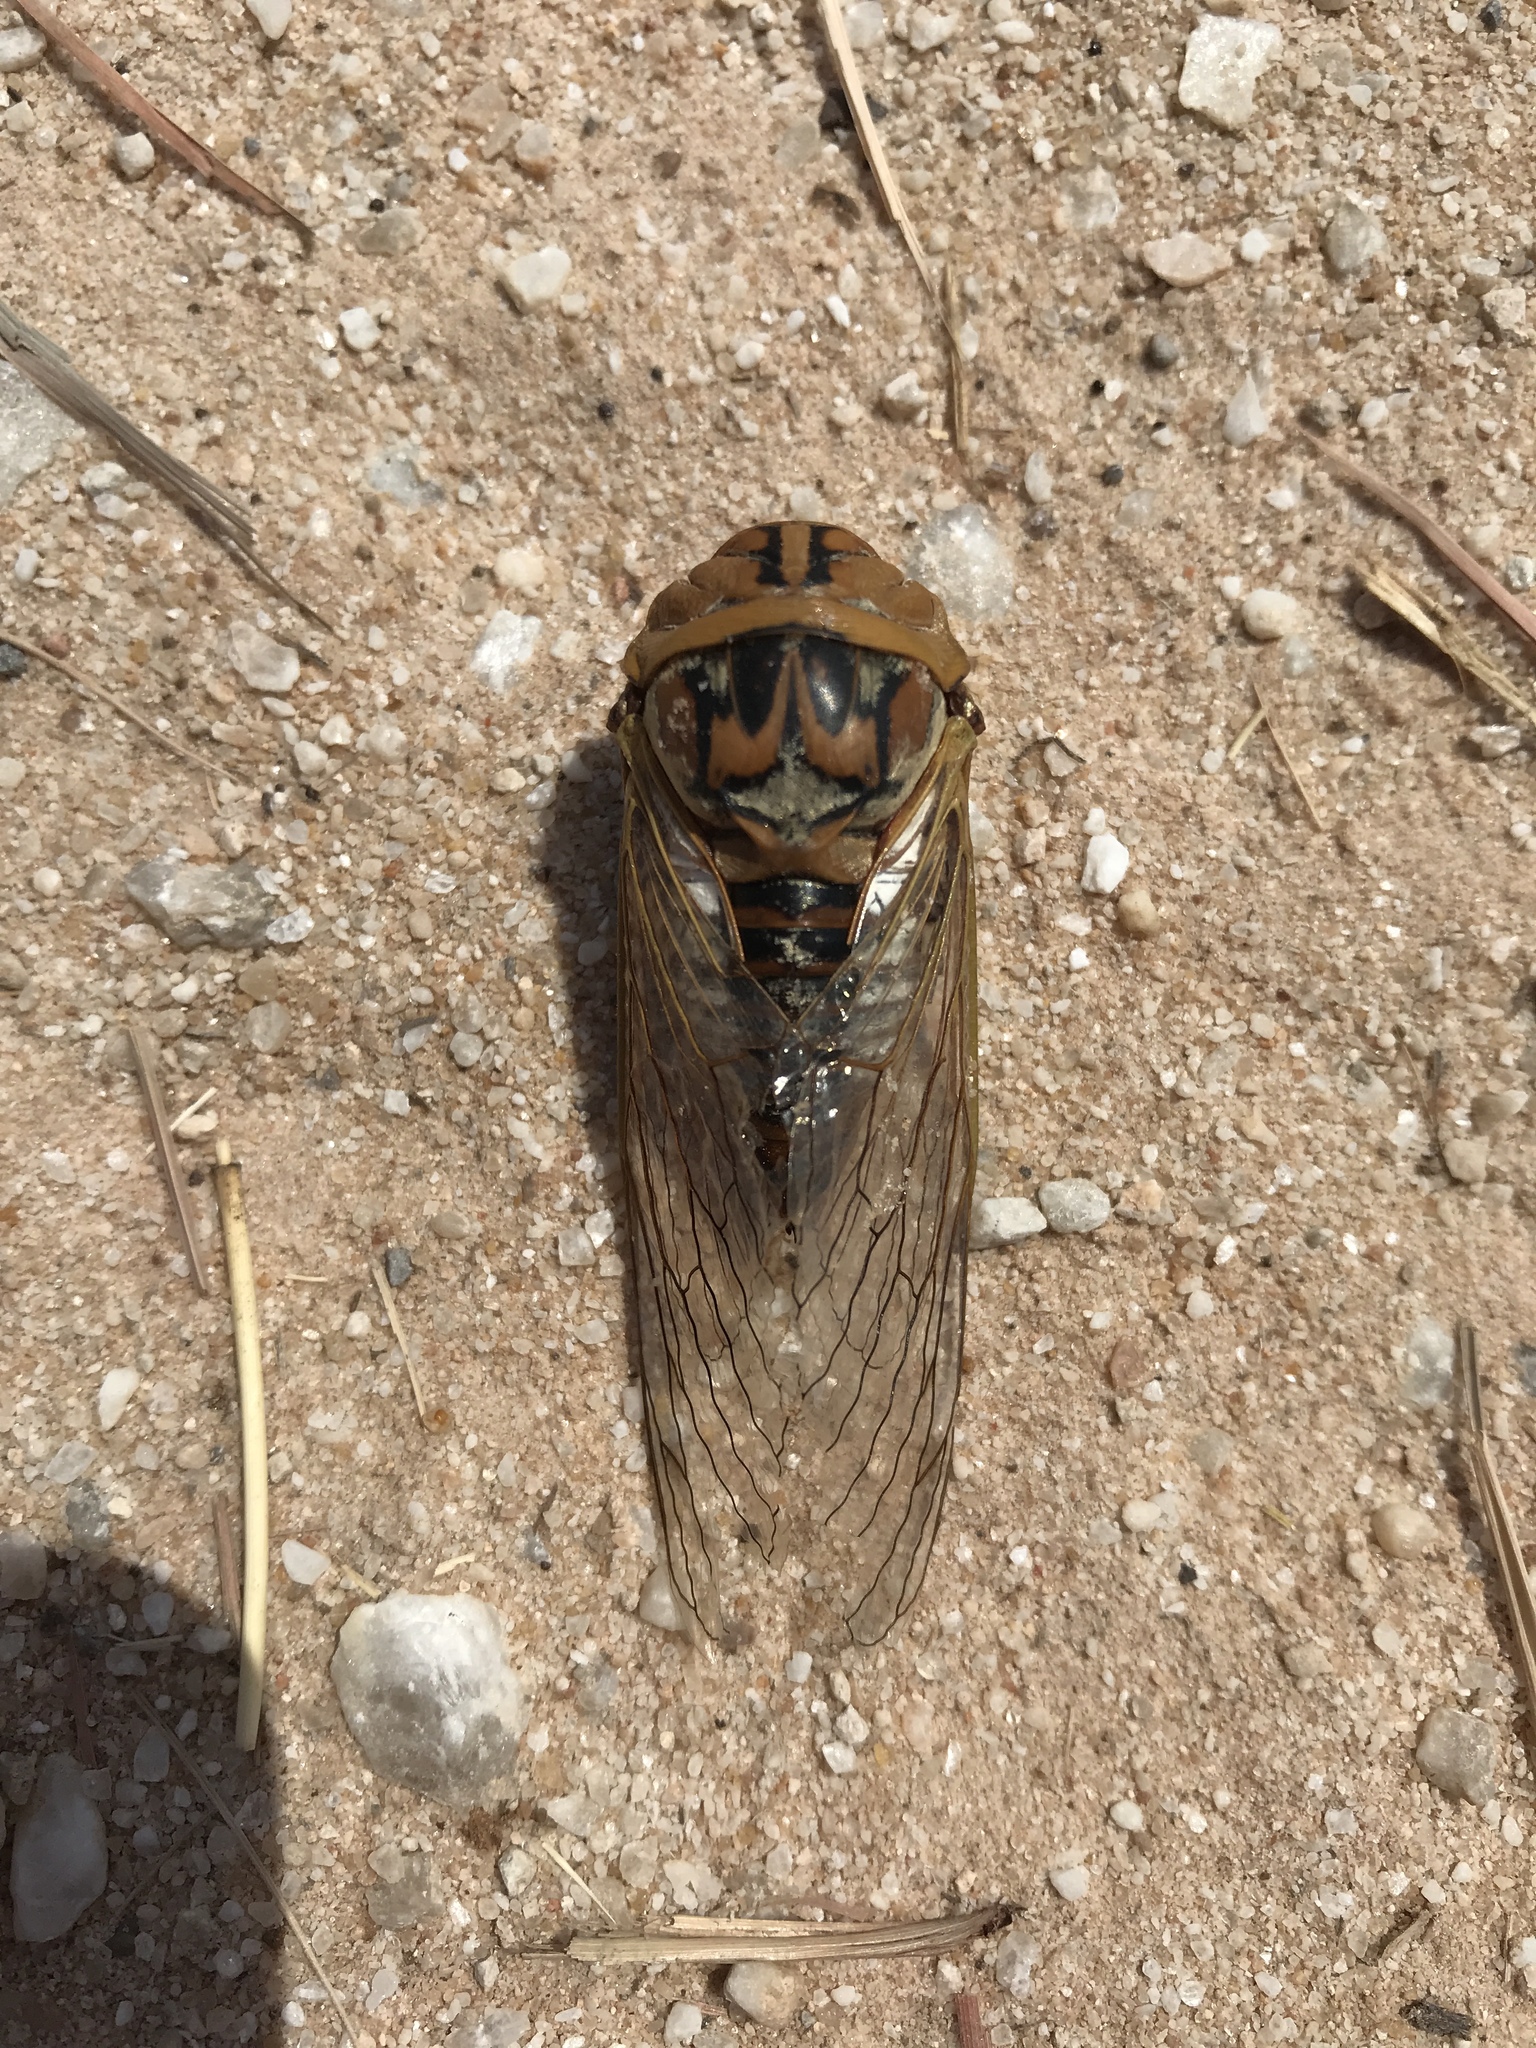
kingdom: Animalia
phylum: Arthropoda
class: Insecta
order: Hemiptera
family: Cicadidae
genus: Megatibicen
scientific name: Megatibicen dealbatus
